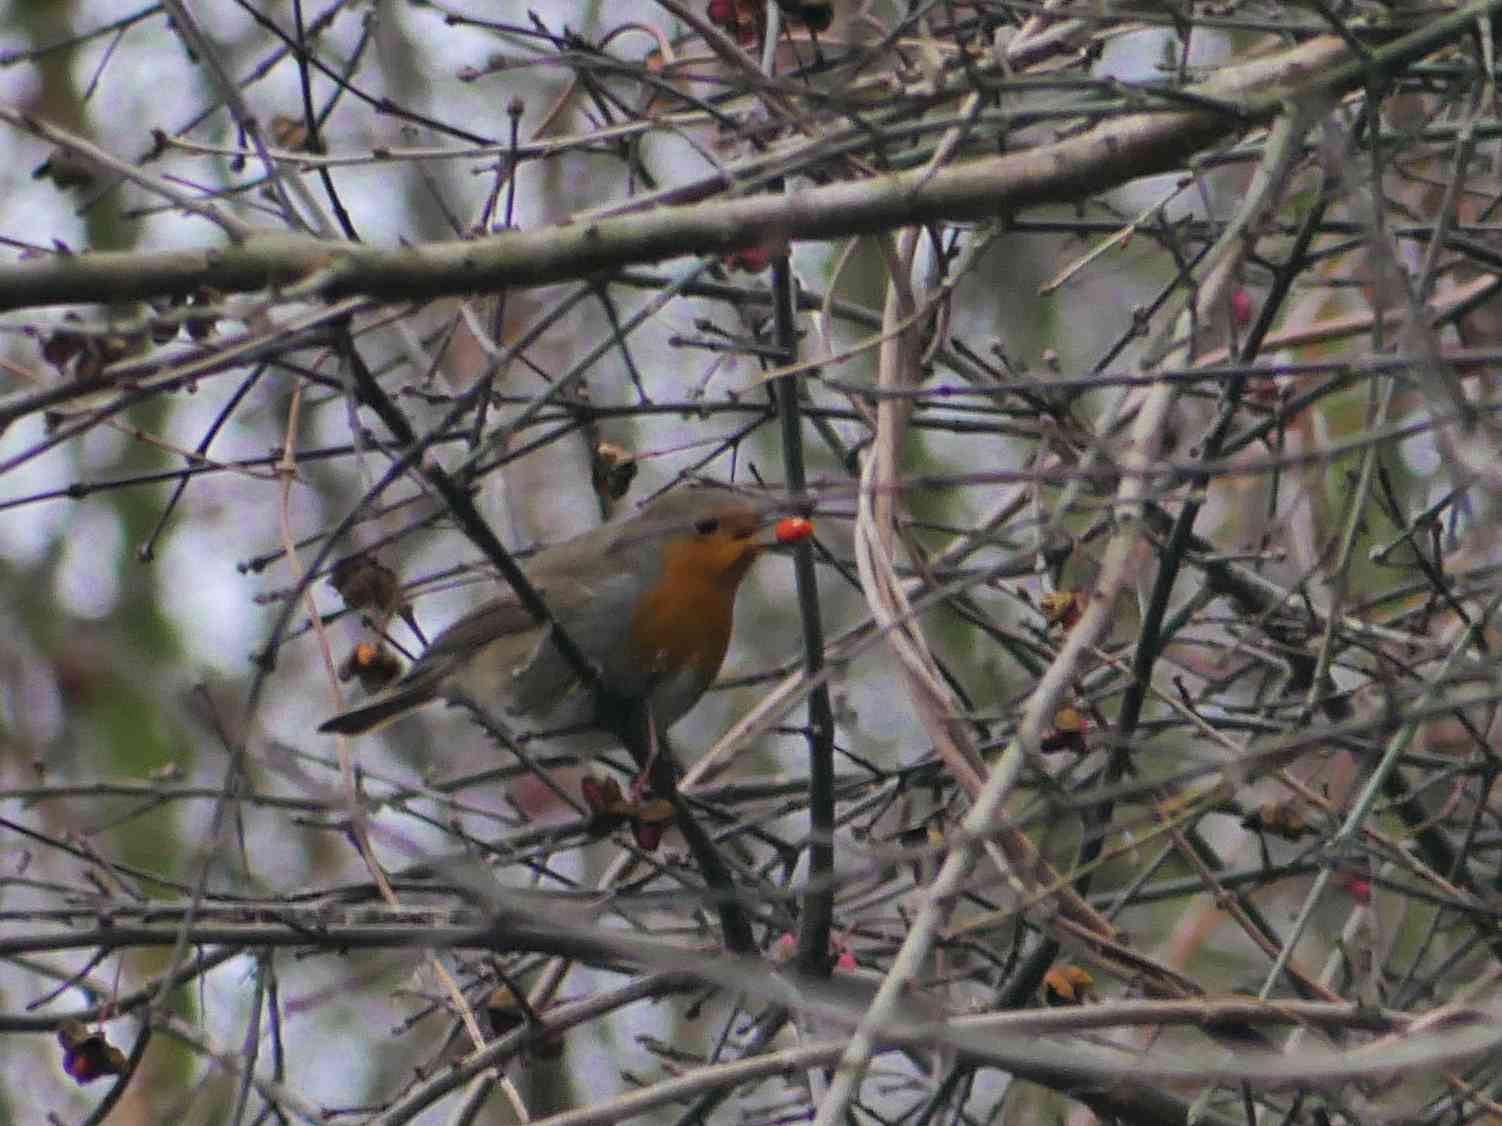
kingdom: Animalia
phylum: Chordata
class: Aves
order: Passeriformes
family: Muscicapidae
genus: Erithacus
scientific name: Erithacus rubecula
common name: European robin
